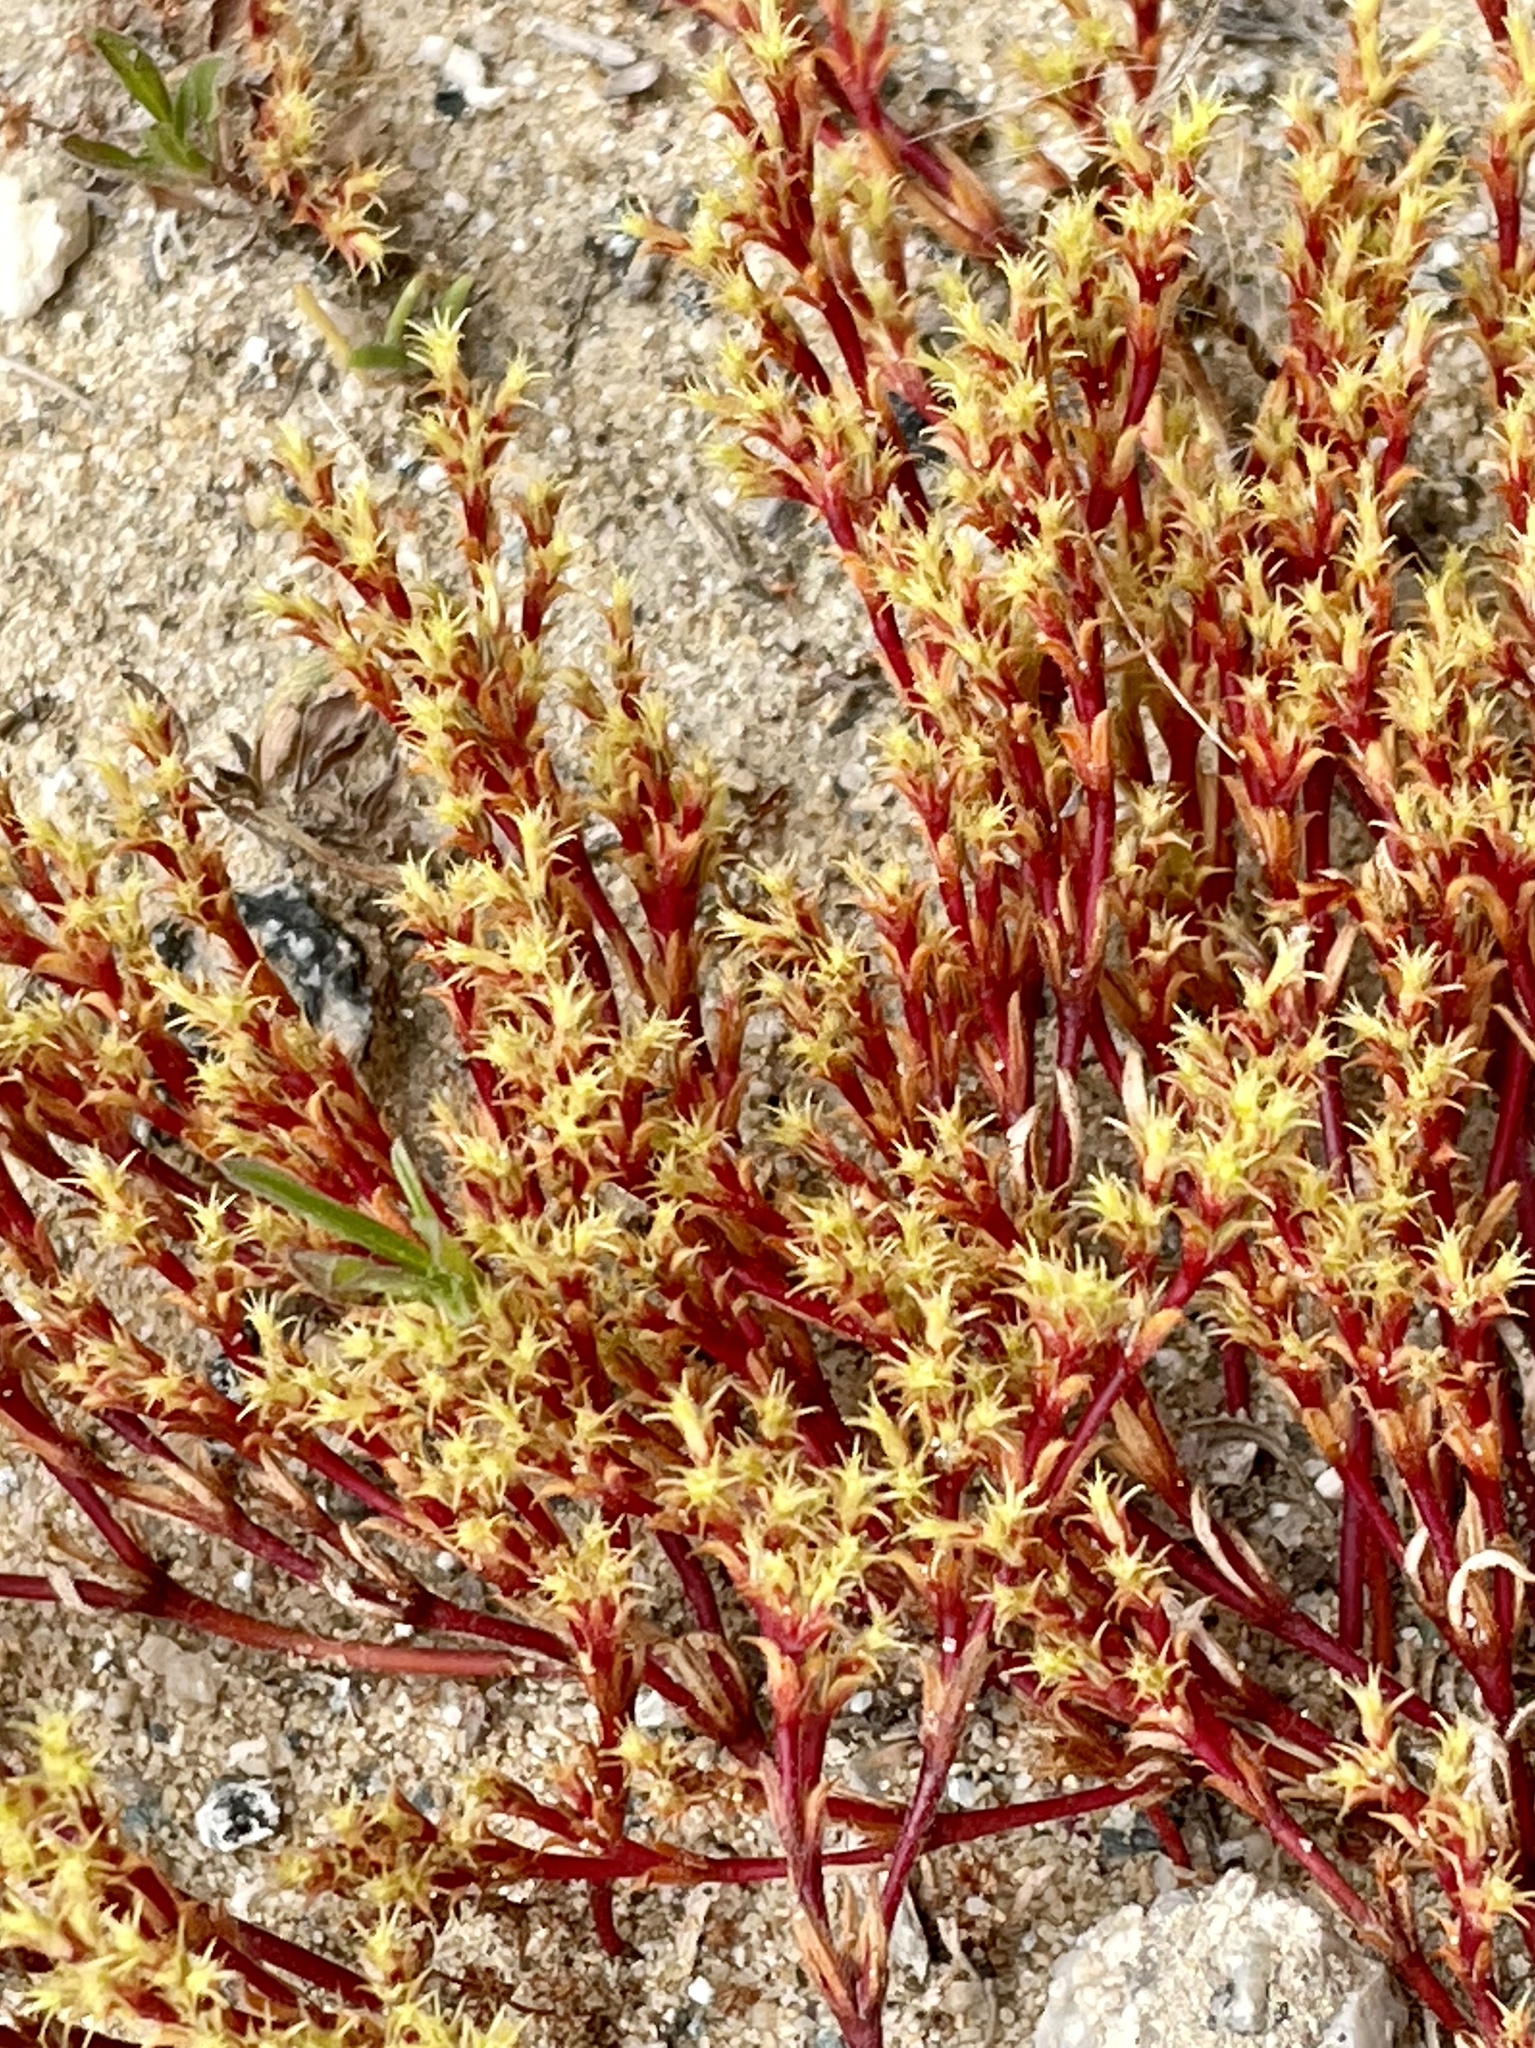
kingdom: Plantae
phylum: Tracheophyta
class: Magnoliopsida
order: Caryophyllales
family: Polygonaceae
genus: Lastarriaea
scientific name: Lastarriaea coriacea
